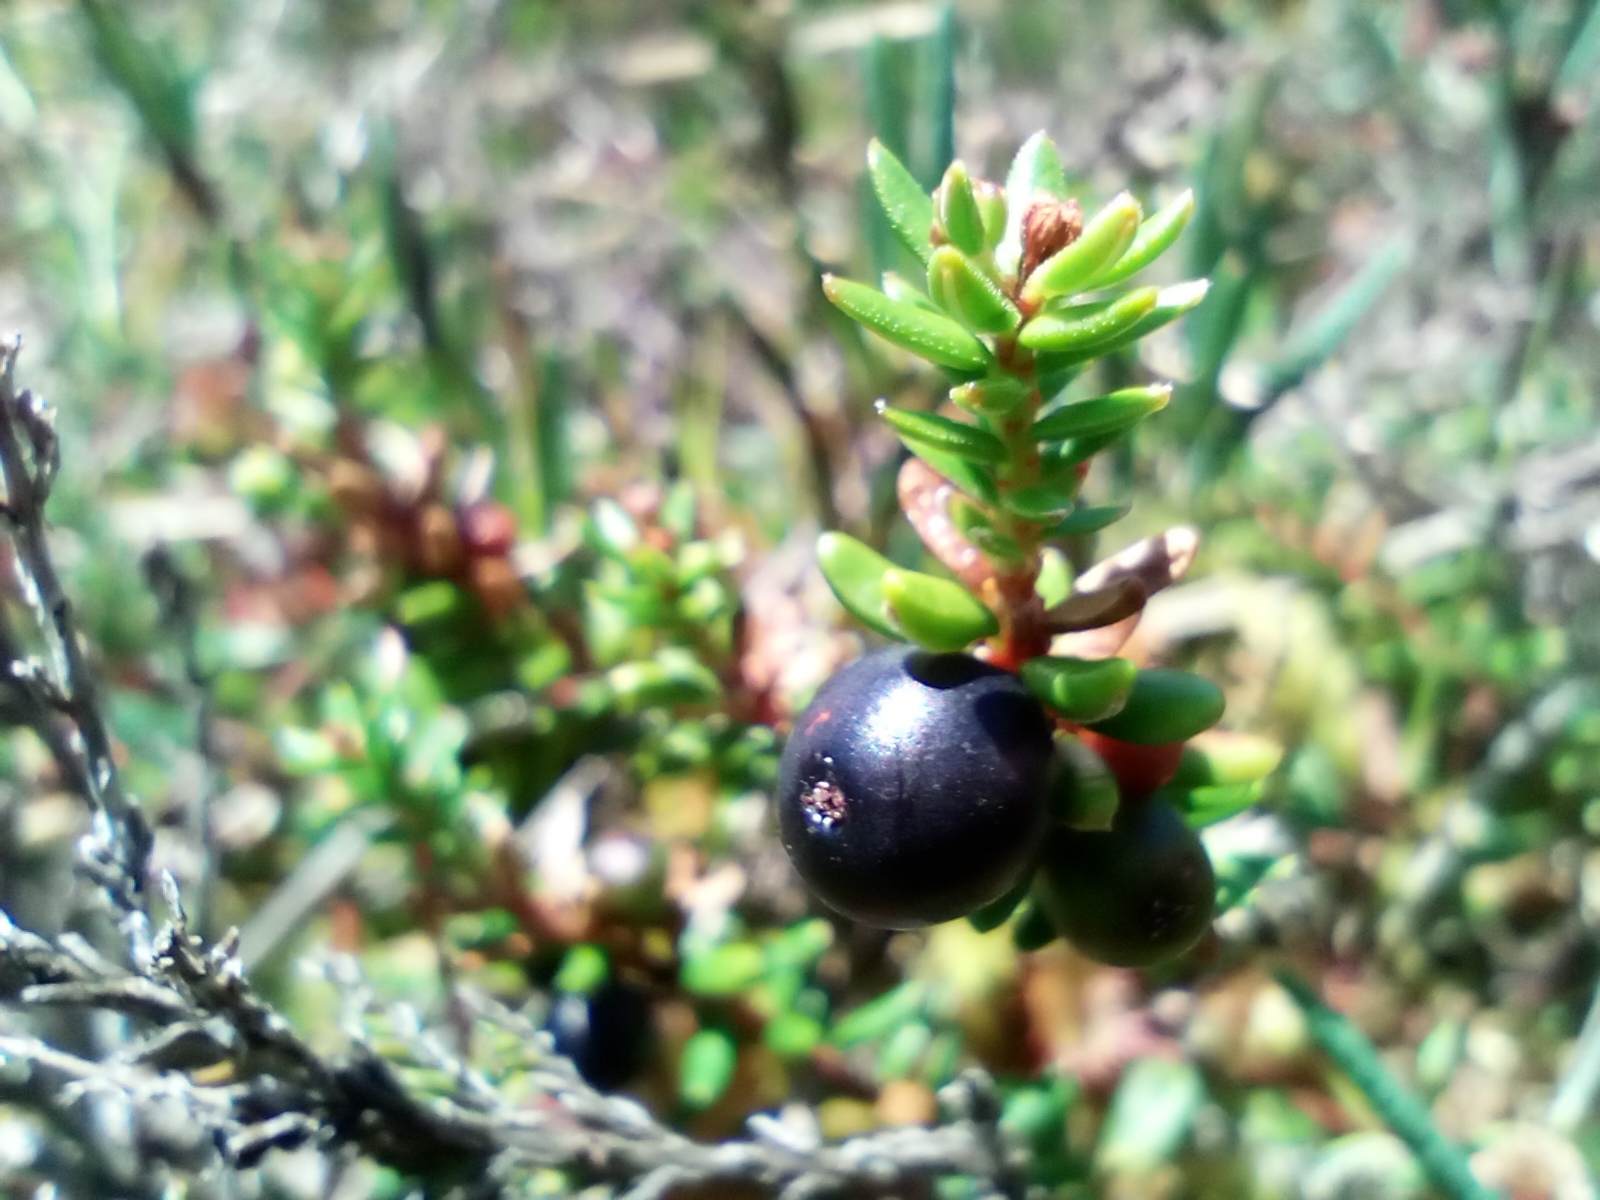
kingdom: Plantae
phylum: Tracheophyta
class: Magnoliopsida
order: Ericales
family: Ericaceae
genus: Empetrum
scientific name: Empetrum nigrum
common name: Black crowberry
